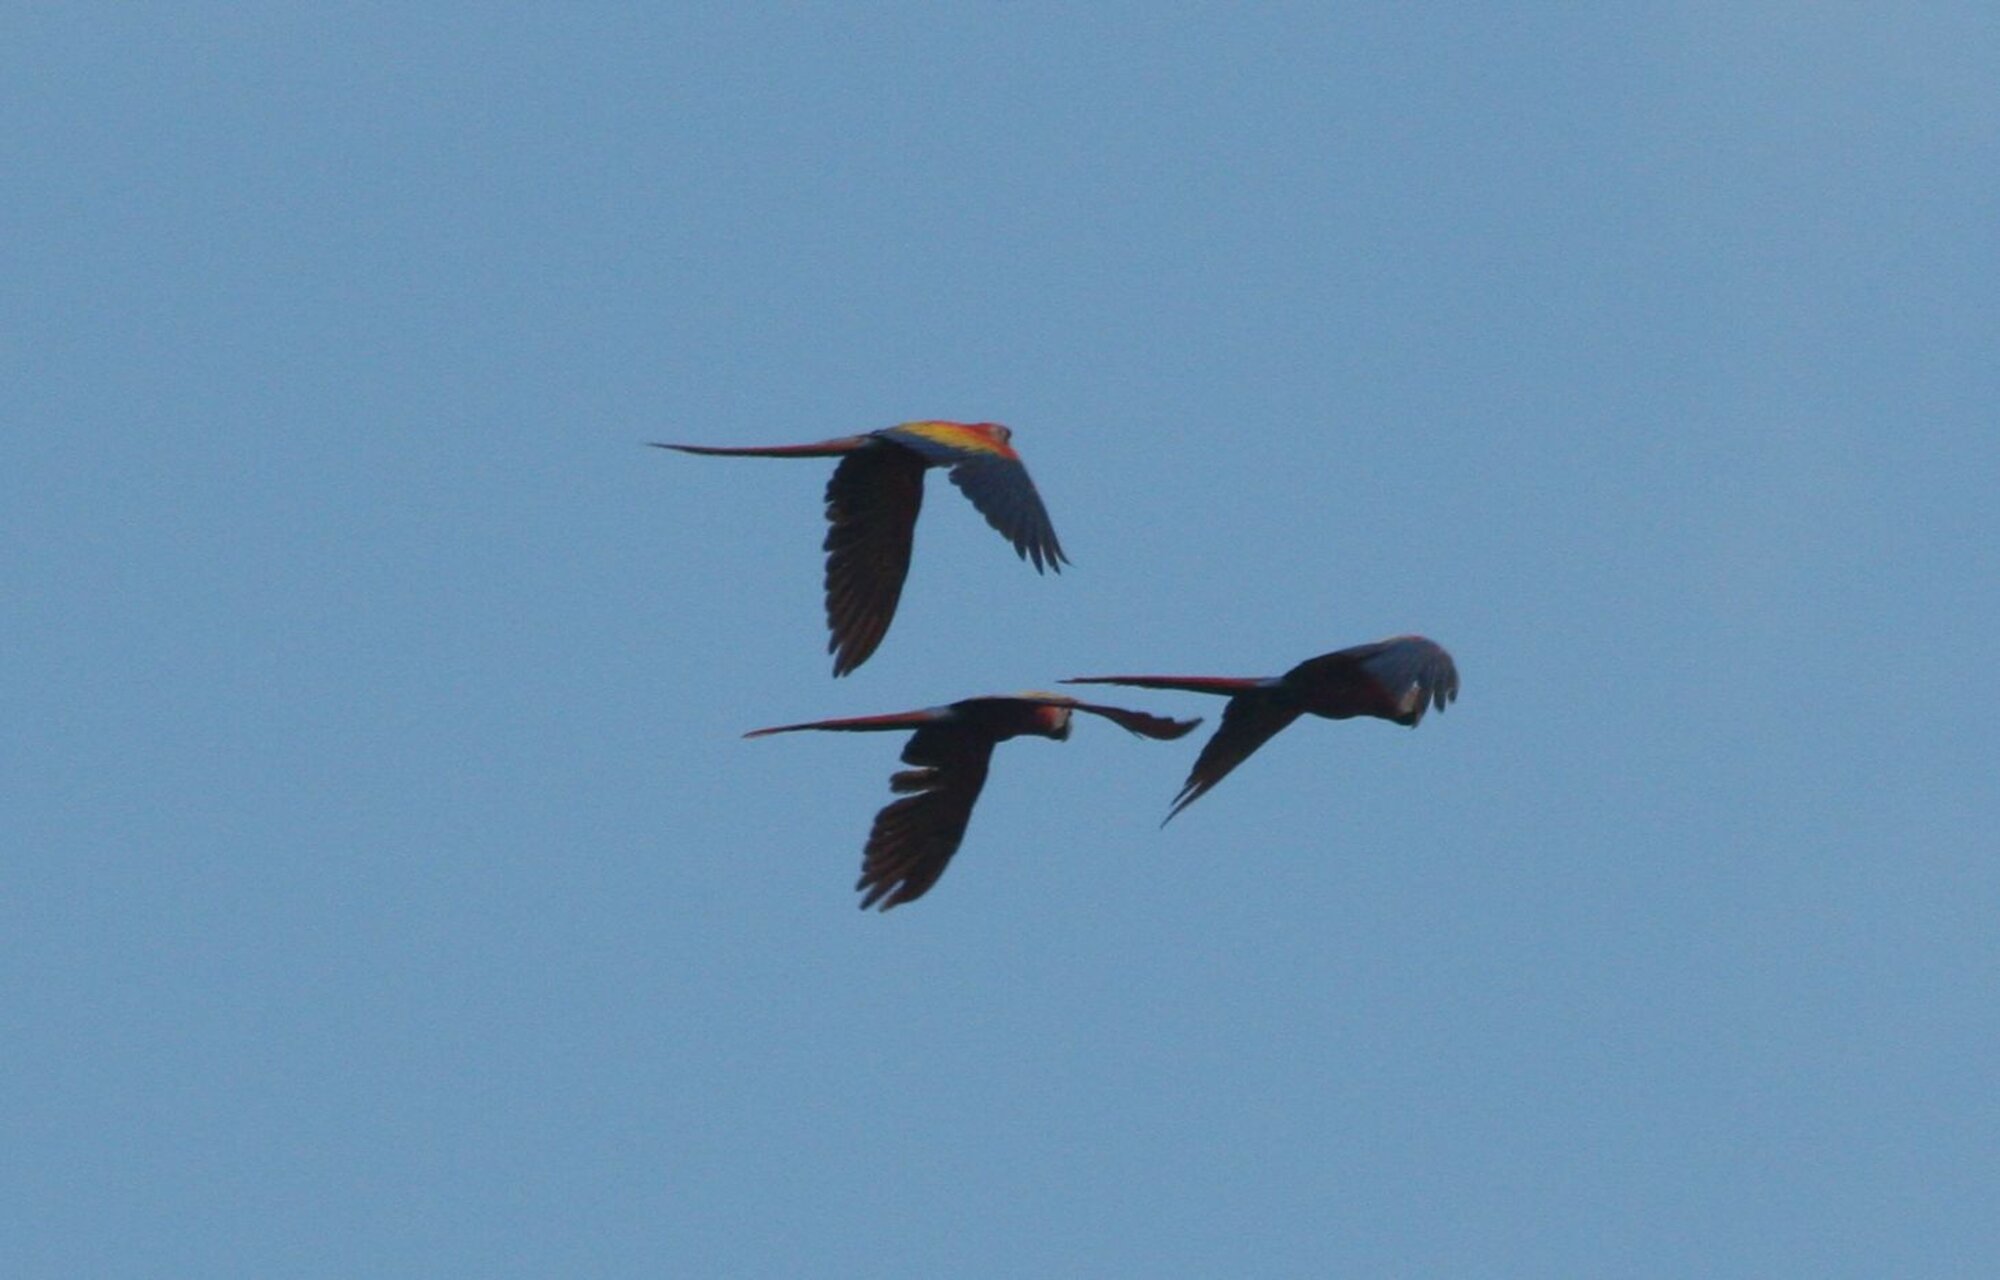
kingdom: Animalia
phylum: Chordata
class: Aves
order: Psittaciformes
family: Psittacidae
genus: Ara
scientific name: Ara macao
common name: Scarlet macaw
